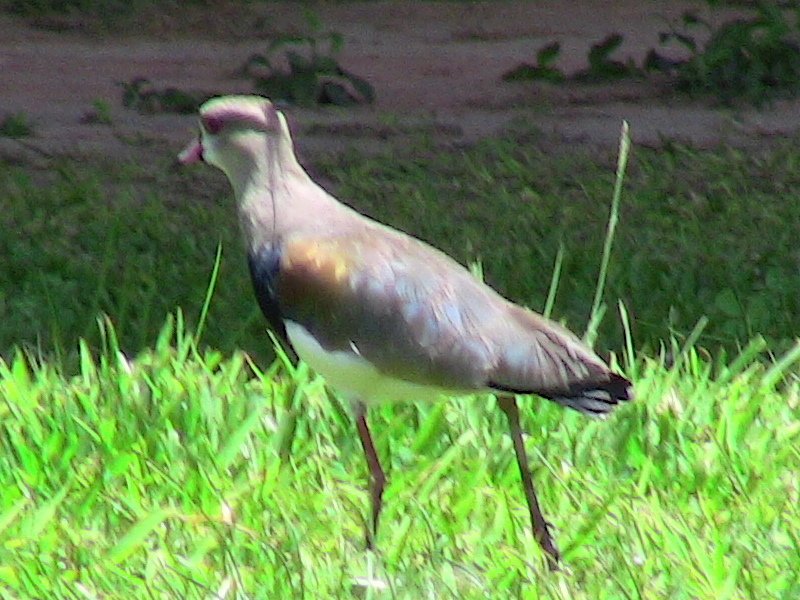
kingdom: Animalia
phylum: Chordata
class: Aves
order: Charadriiformes
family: Charadriidae
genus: Vanellus
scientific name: Vanellus chilensis
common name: Southern lapwing
